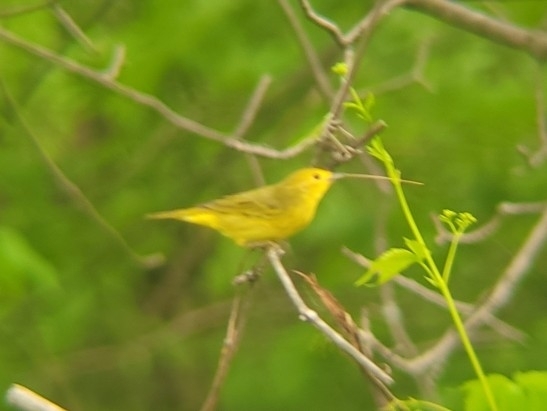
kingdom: Animalia
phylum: Chordata
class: Aves
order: Passeriformes
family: Parulidae
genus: Setophaga
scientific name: Setophaga petechia
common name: Yellow warbler
